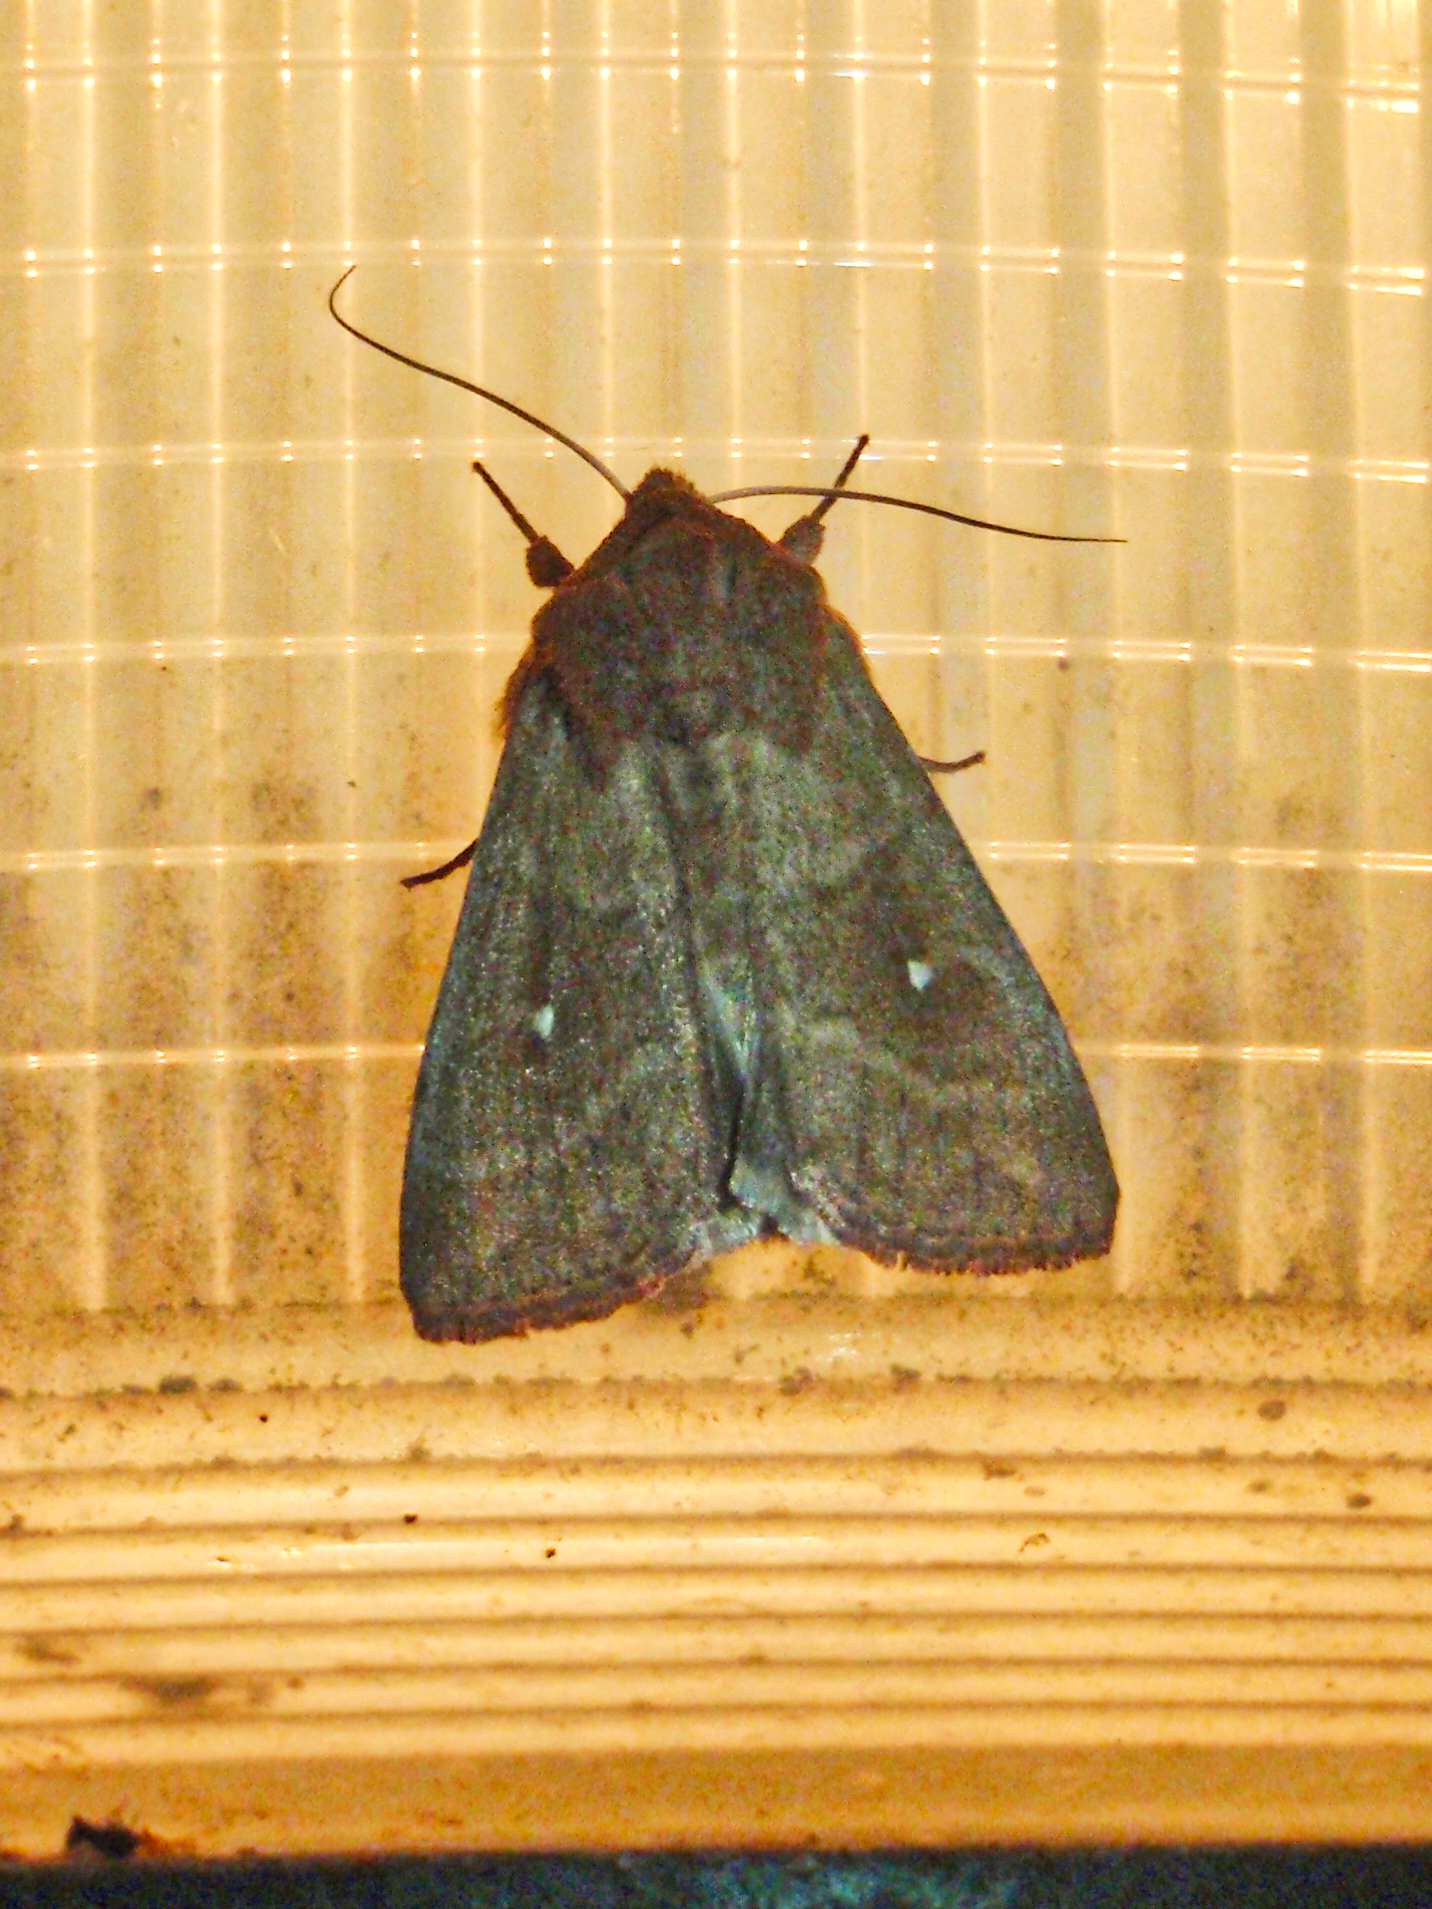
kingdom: Animalia
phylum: Arthropoda
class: Insecta
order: Lepidoptera
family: Noctuidae
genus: Mythimna
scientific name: Mythimna albipuncta
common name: White-point
